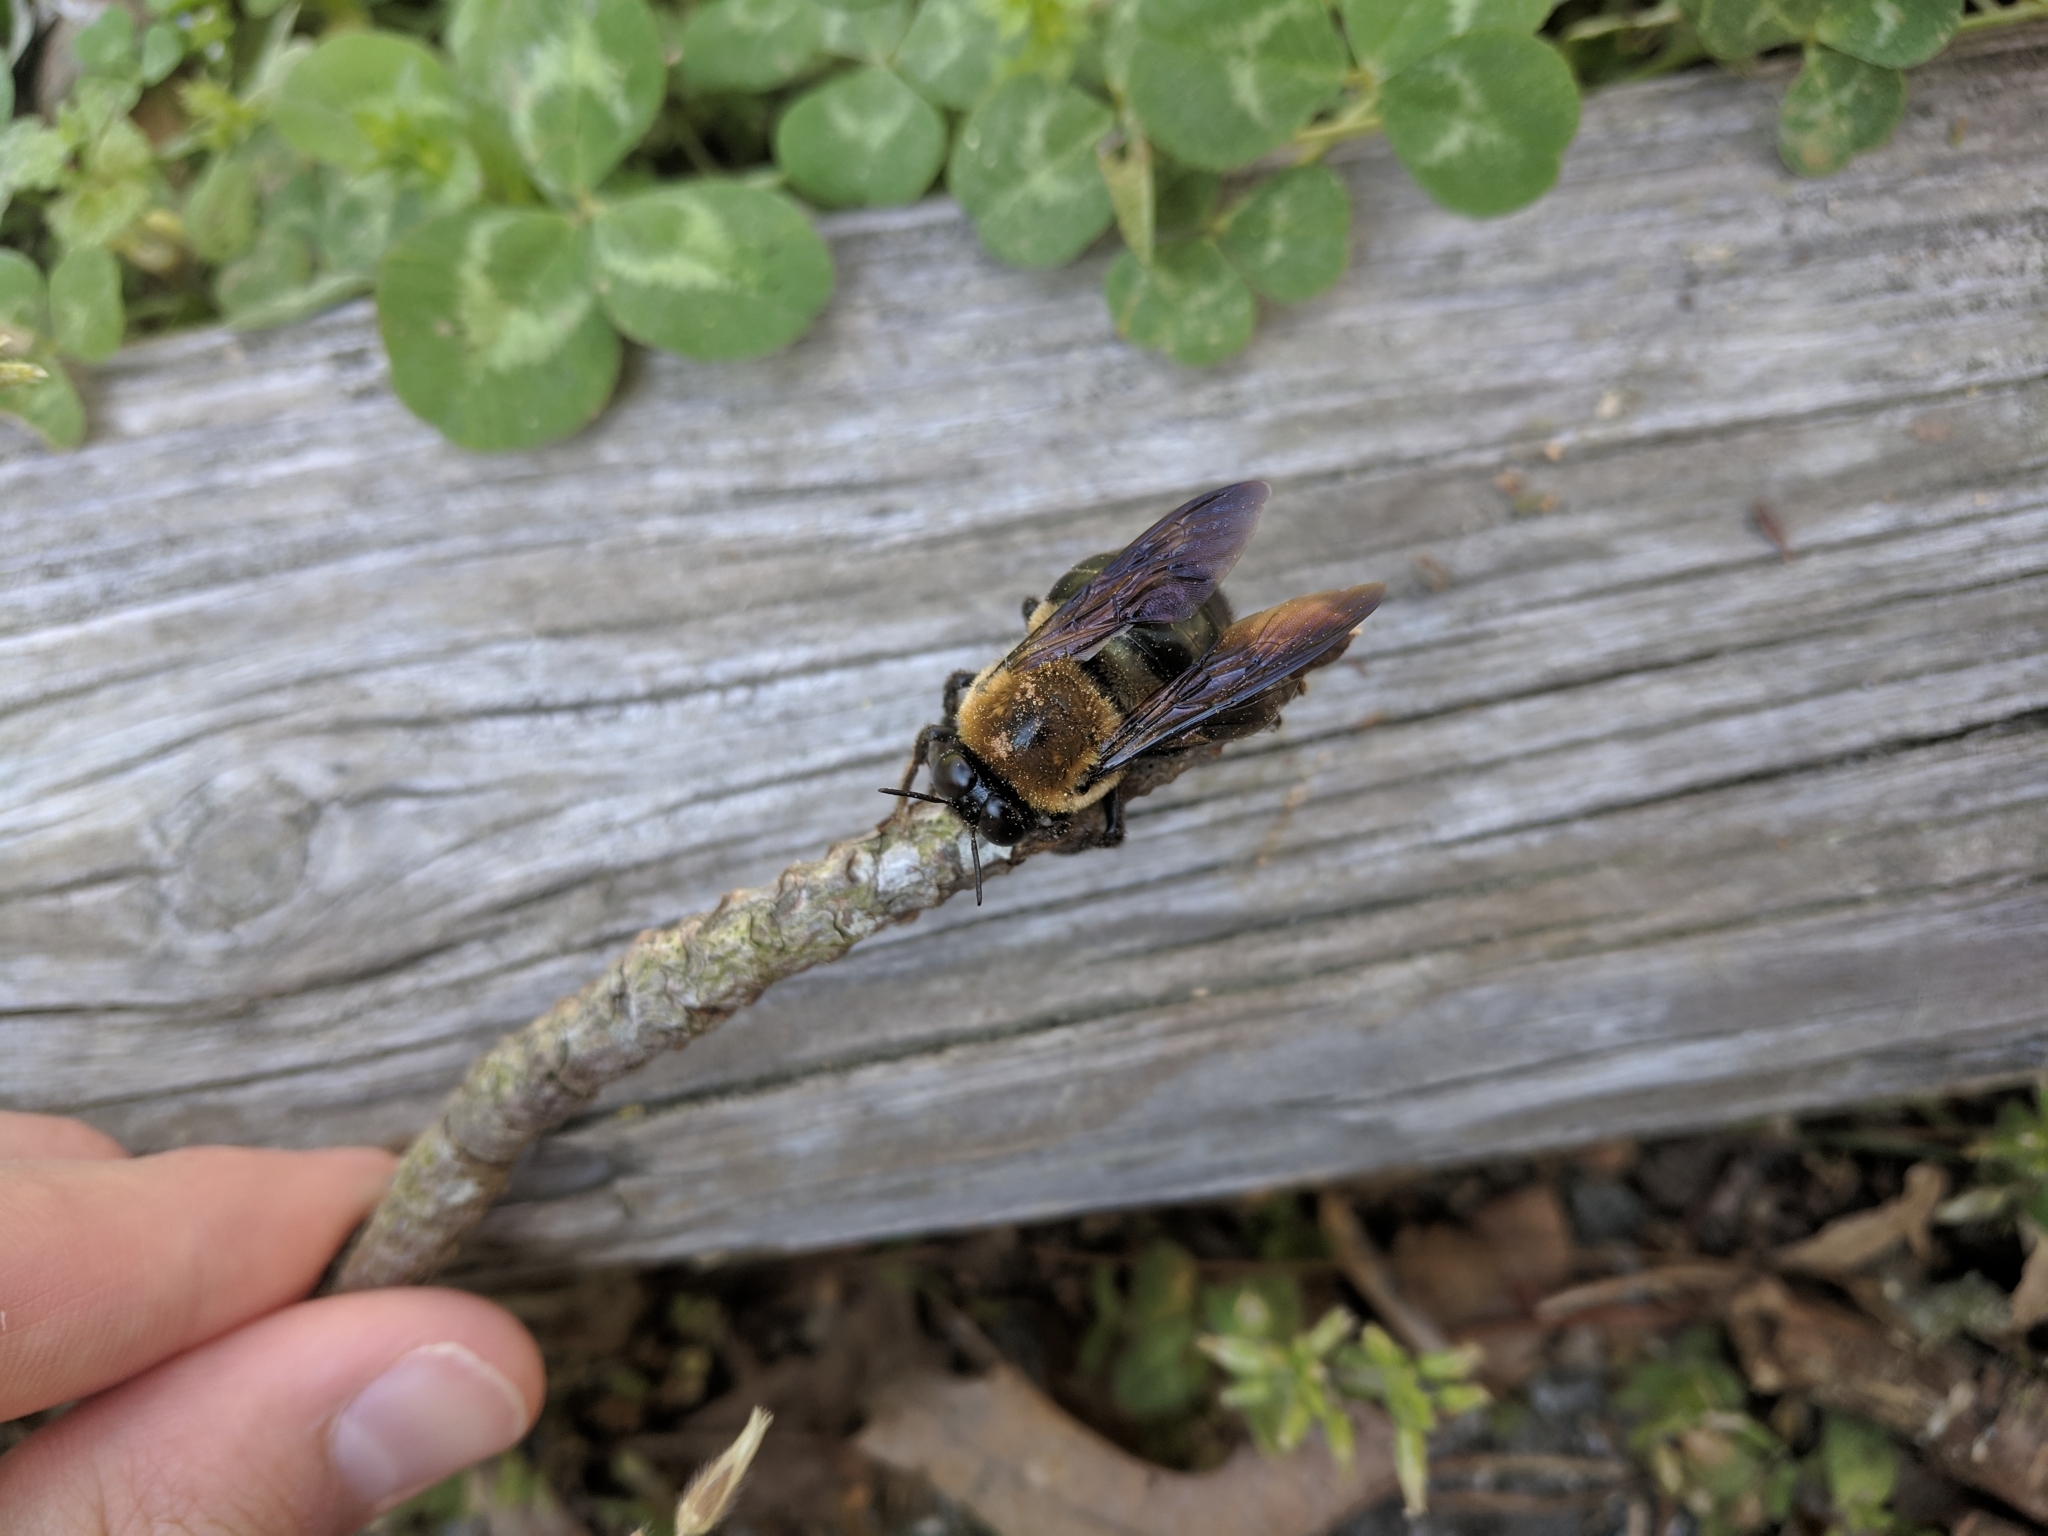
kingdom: Animalia
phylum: Arthropoda
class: Insecta
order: Hymenoptera
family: Apidae
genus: Xylocopa
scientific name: Xylocopa virginica
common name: Carpenter bee
